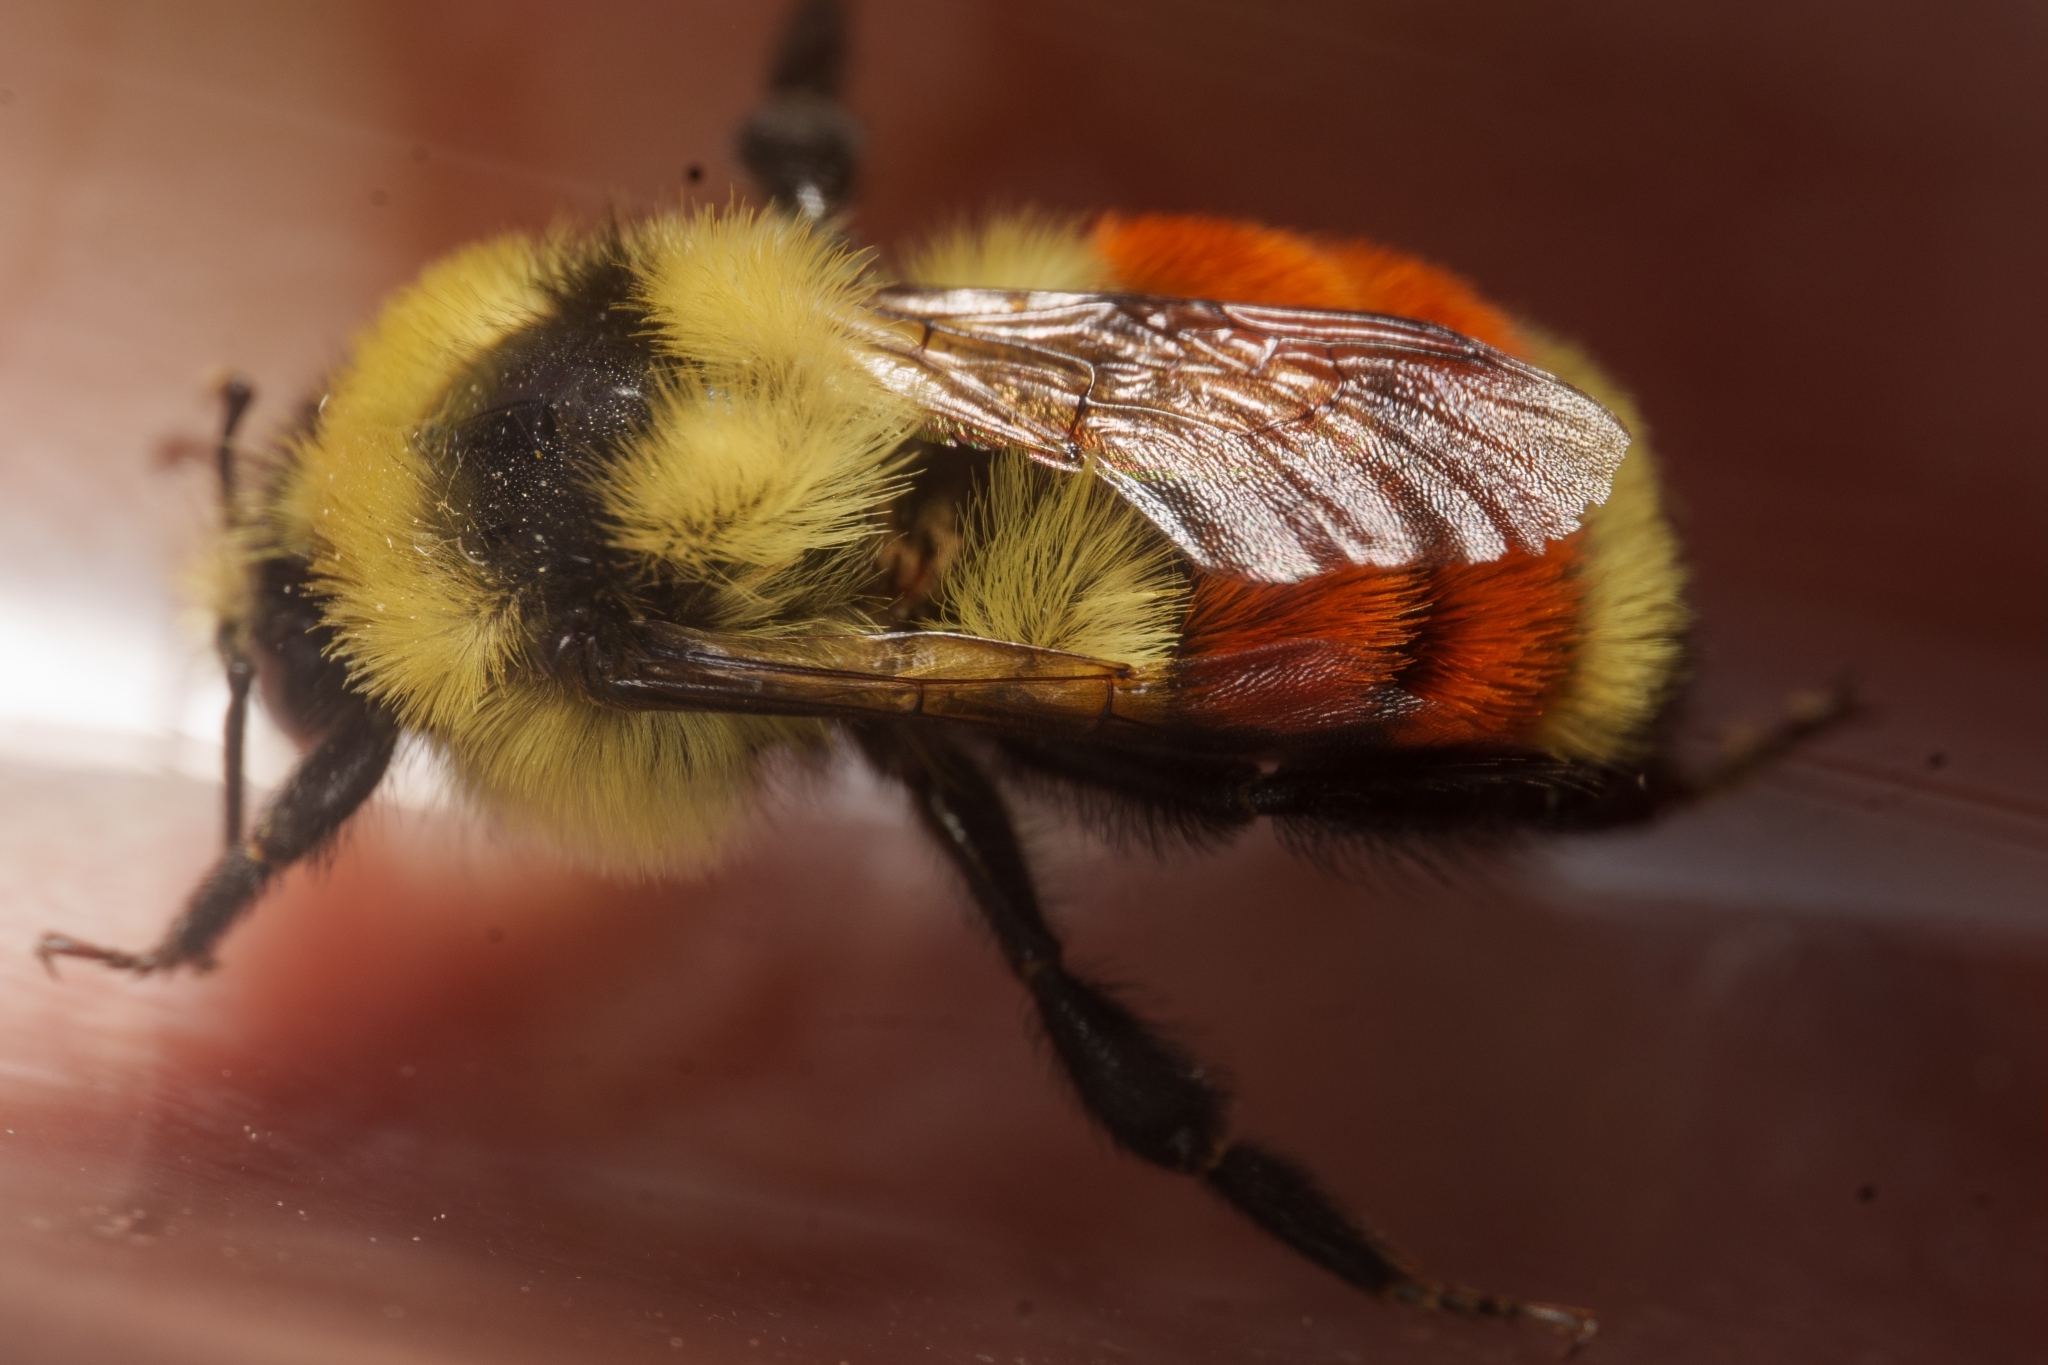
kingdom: Animalia
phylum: Arthropoda
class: Insecta
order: Hymenoptera
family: Apidae
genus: Bombus
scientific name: Bombus huntii
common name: Hunt bumble bee
